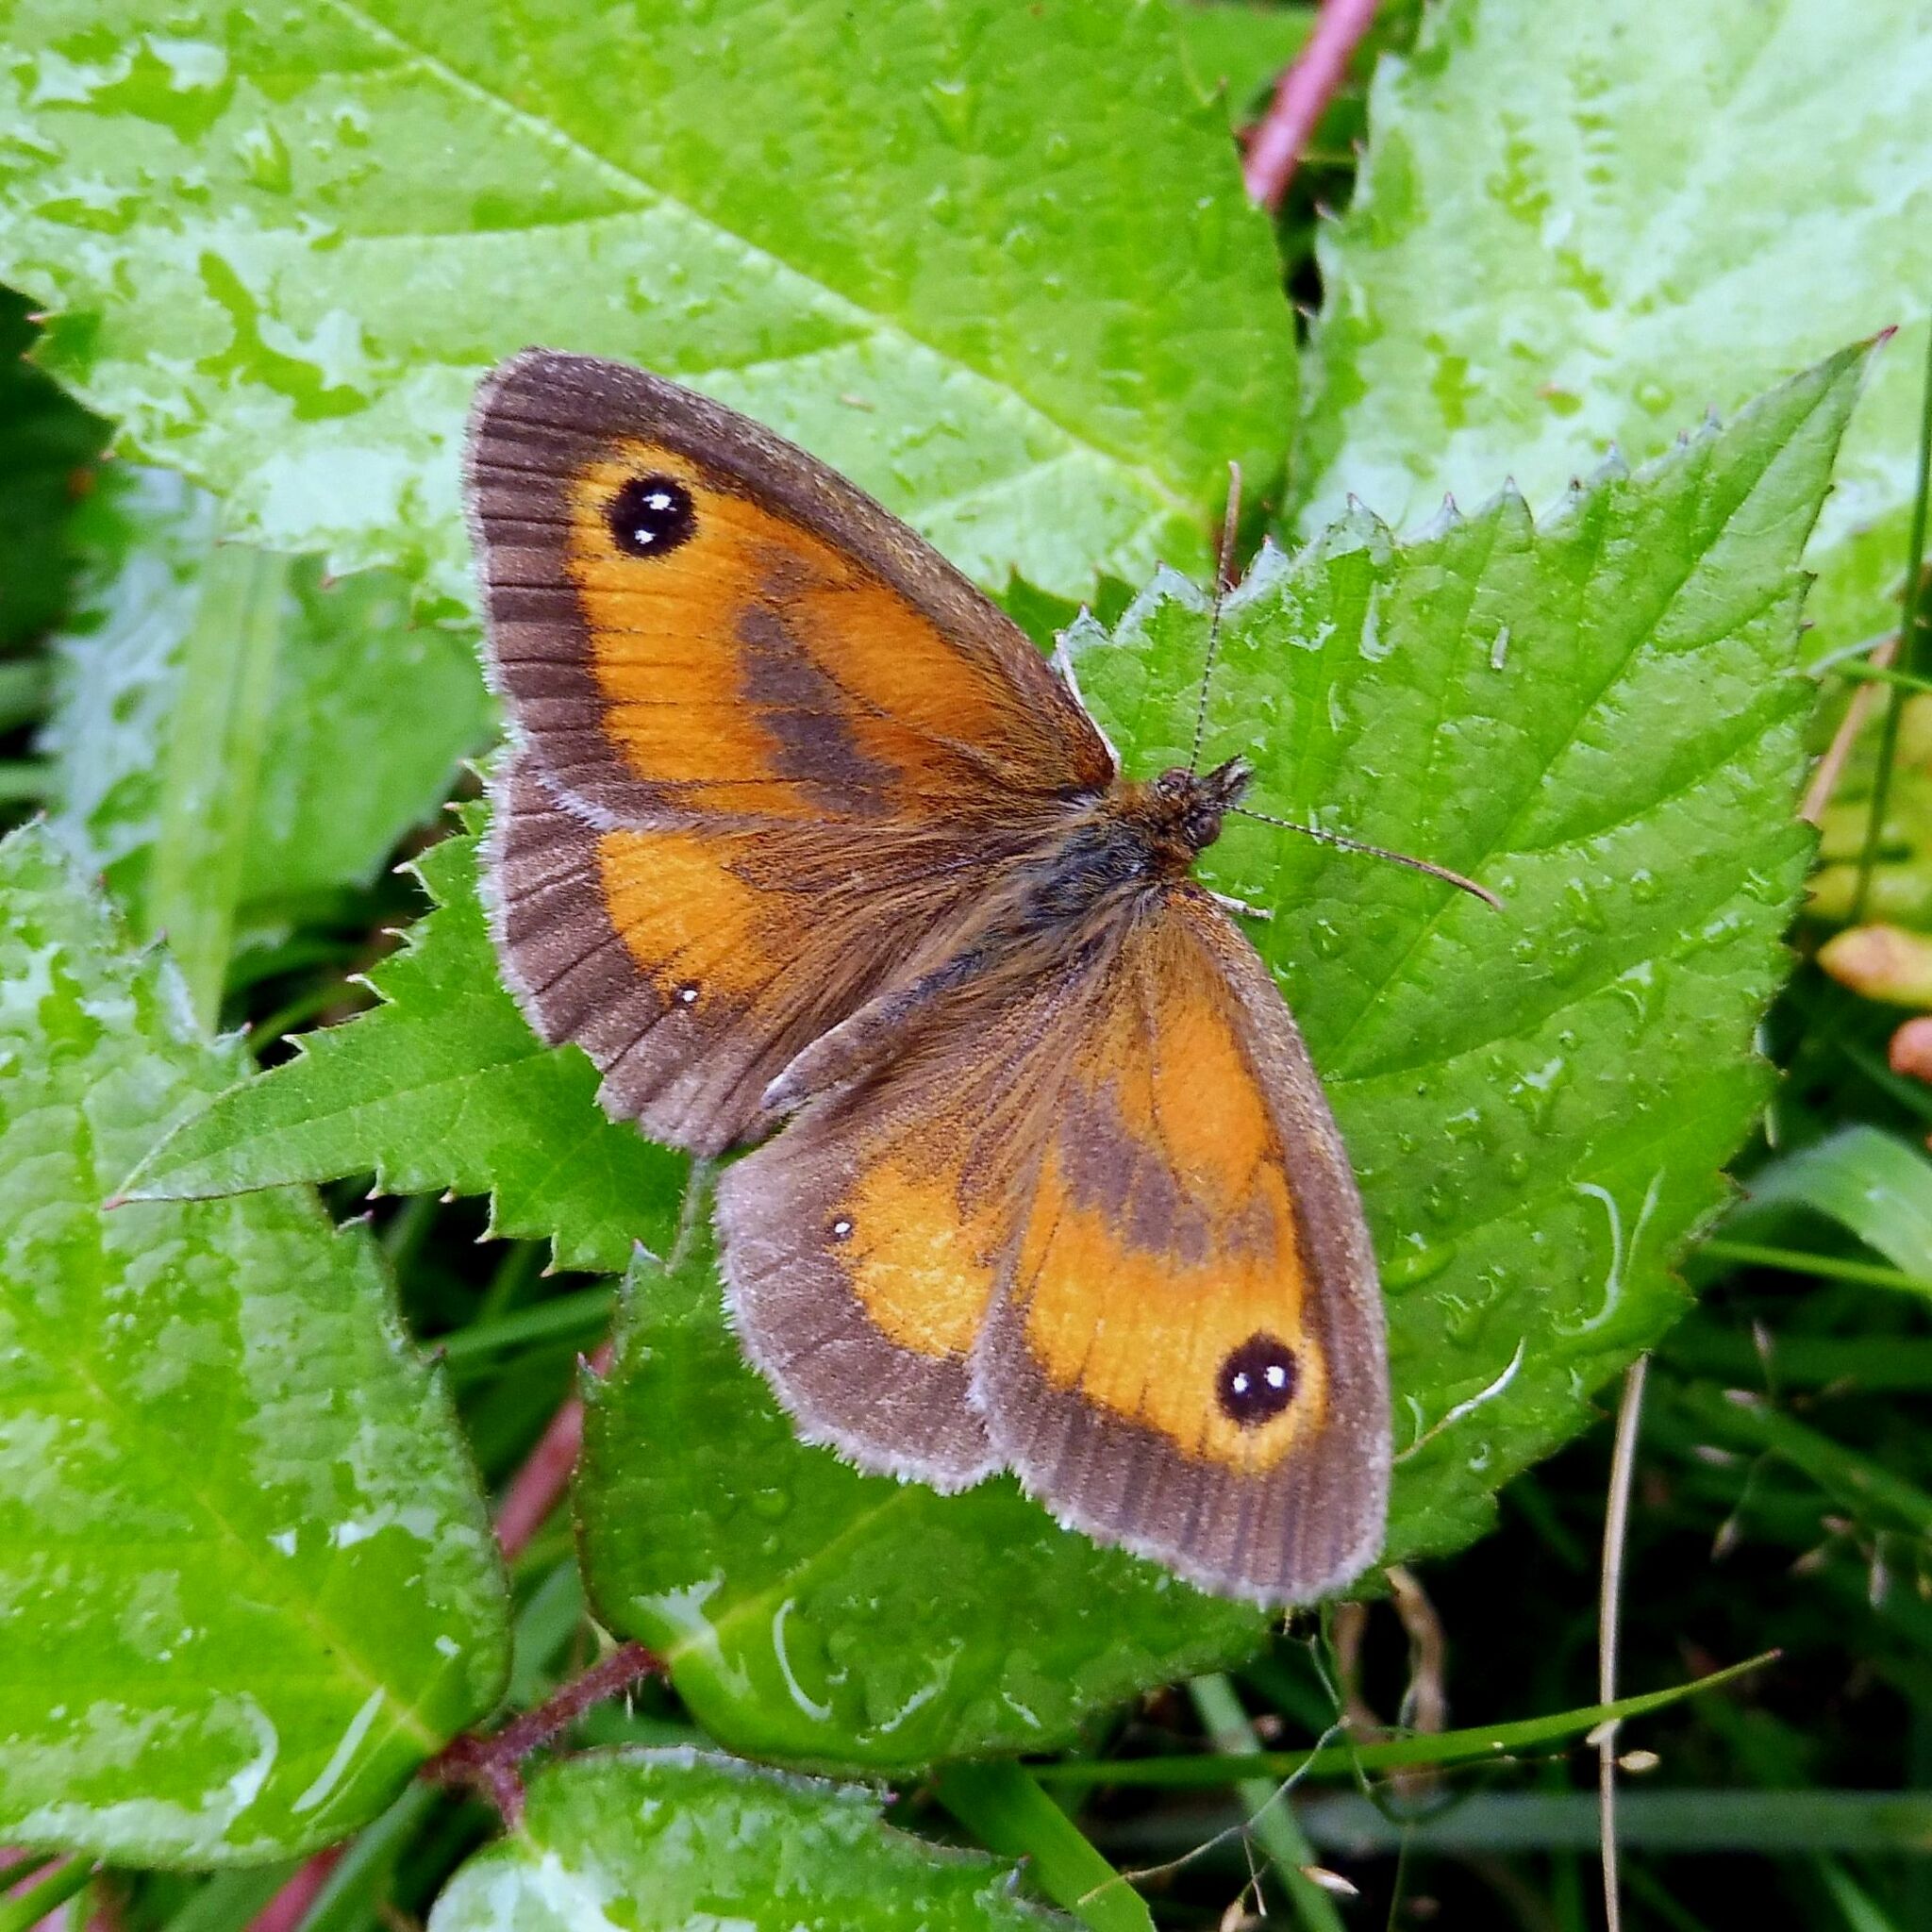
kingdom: Animalia
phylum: Arthropoda
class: Insecta
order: Lepidoptera
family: Nymphalidae
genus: Pyronia
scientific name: Pyronia tithonus
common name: Gatekeeper
